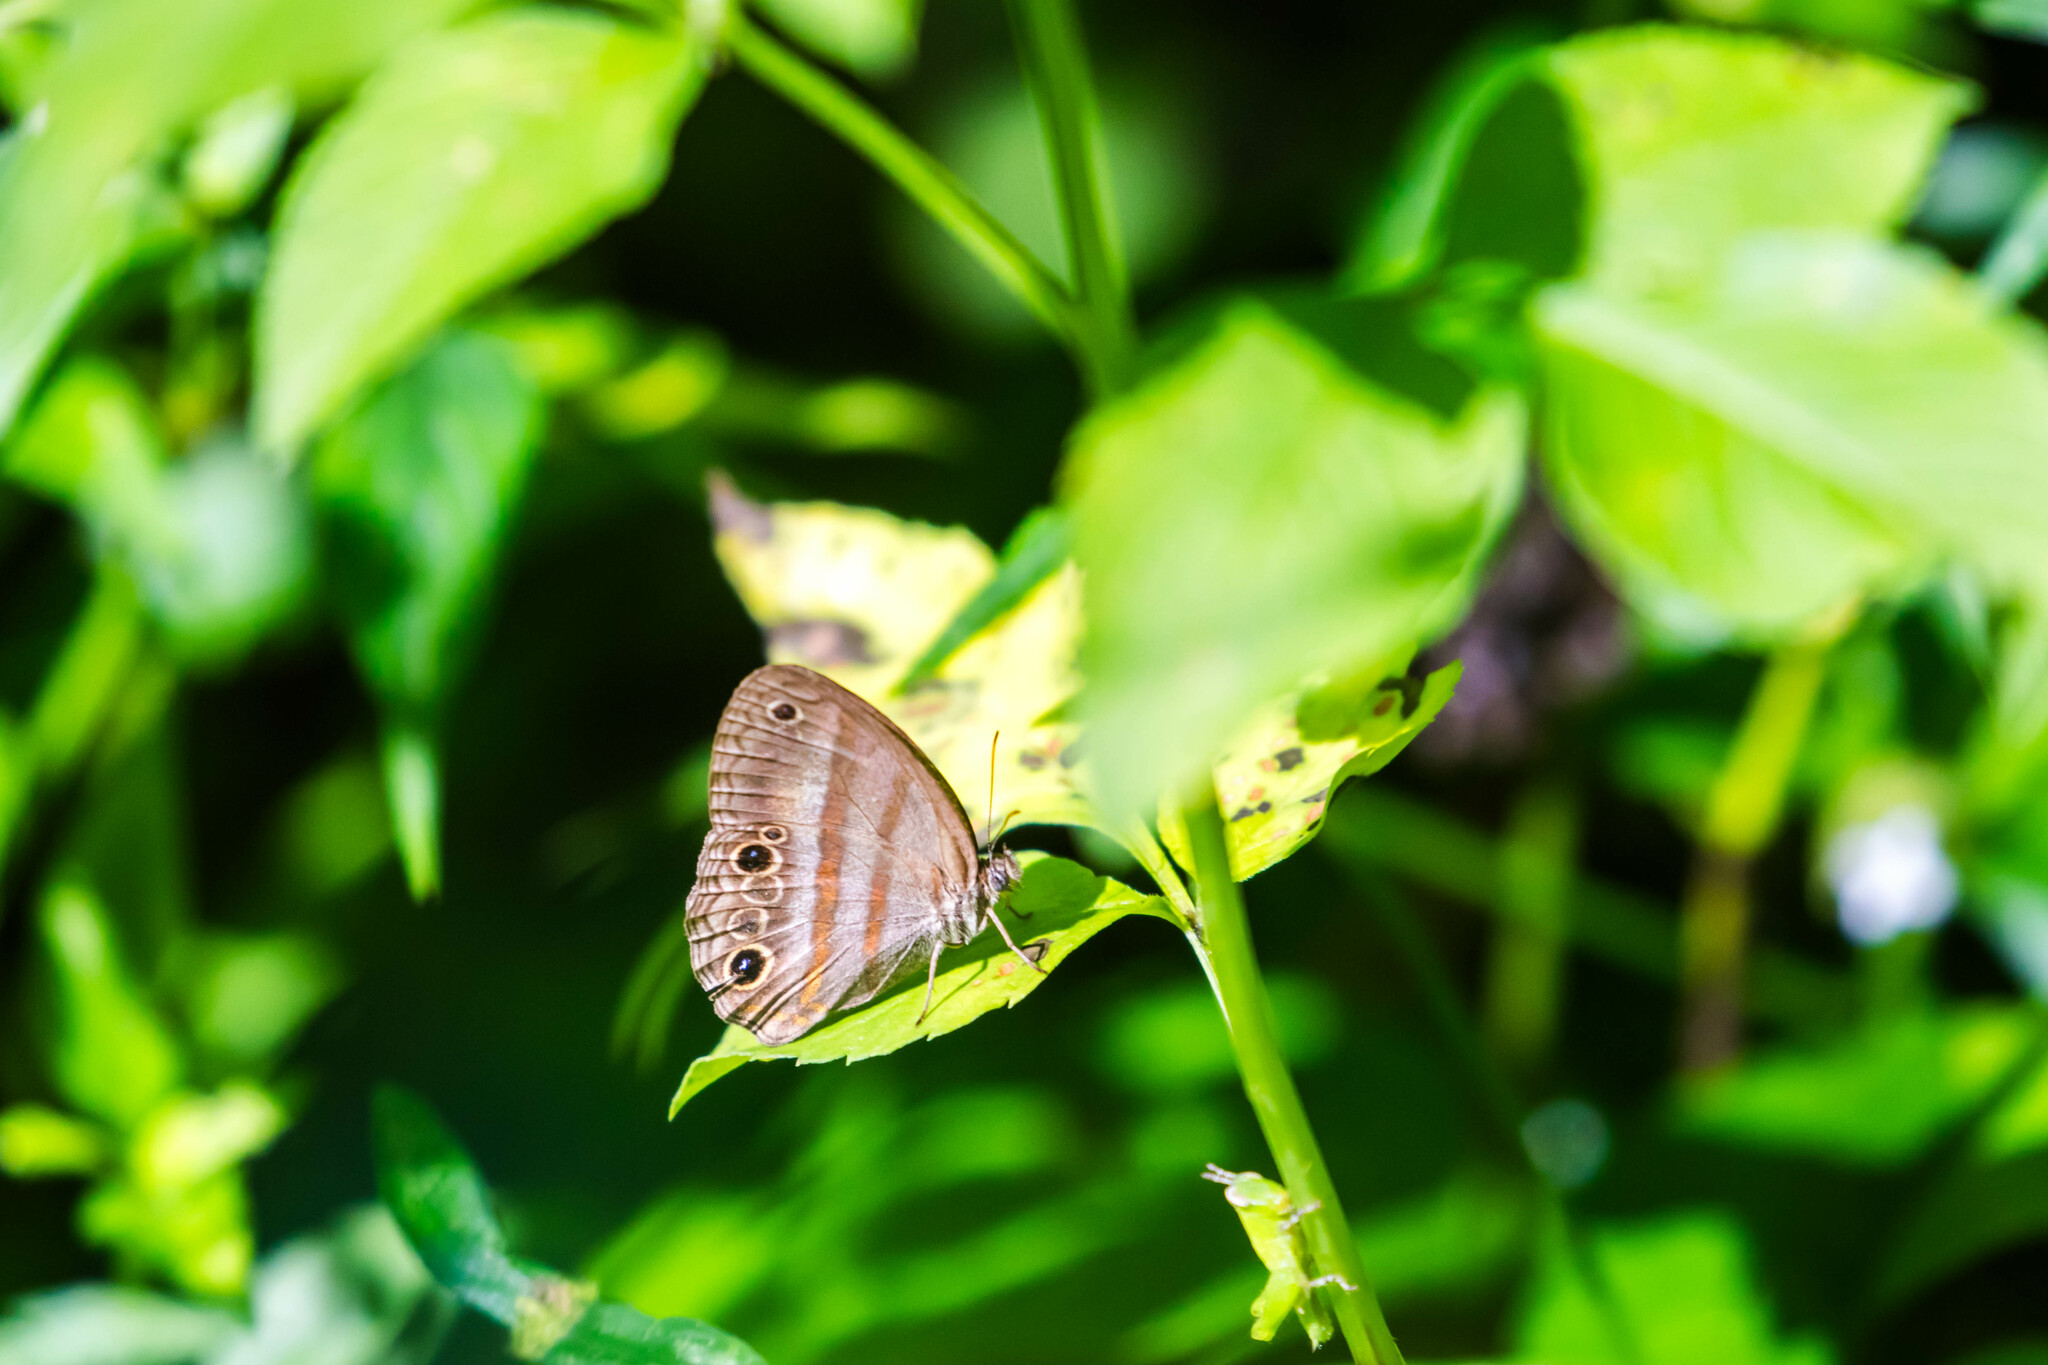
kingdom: Animalia
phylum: Arthropoda
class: Insecta
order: Lepidoptera
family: Nymphalidae
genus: Modica
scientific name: Modica
